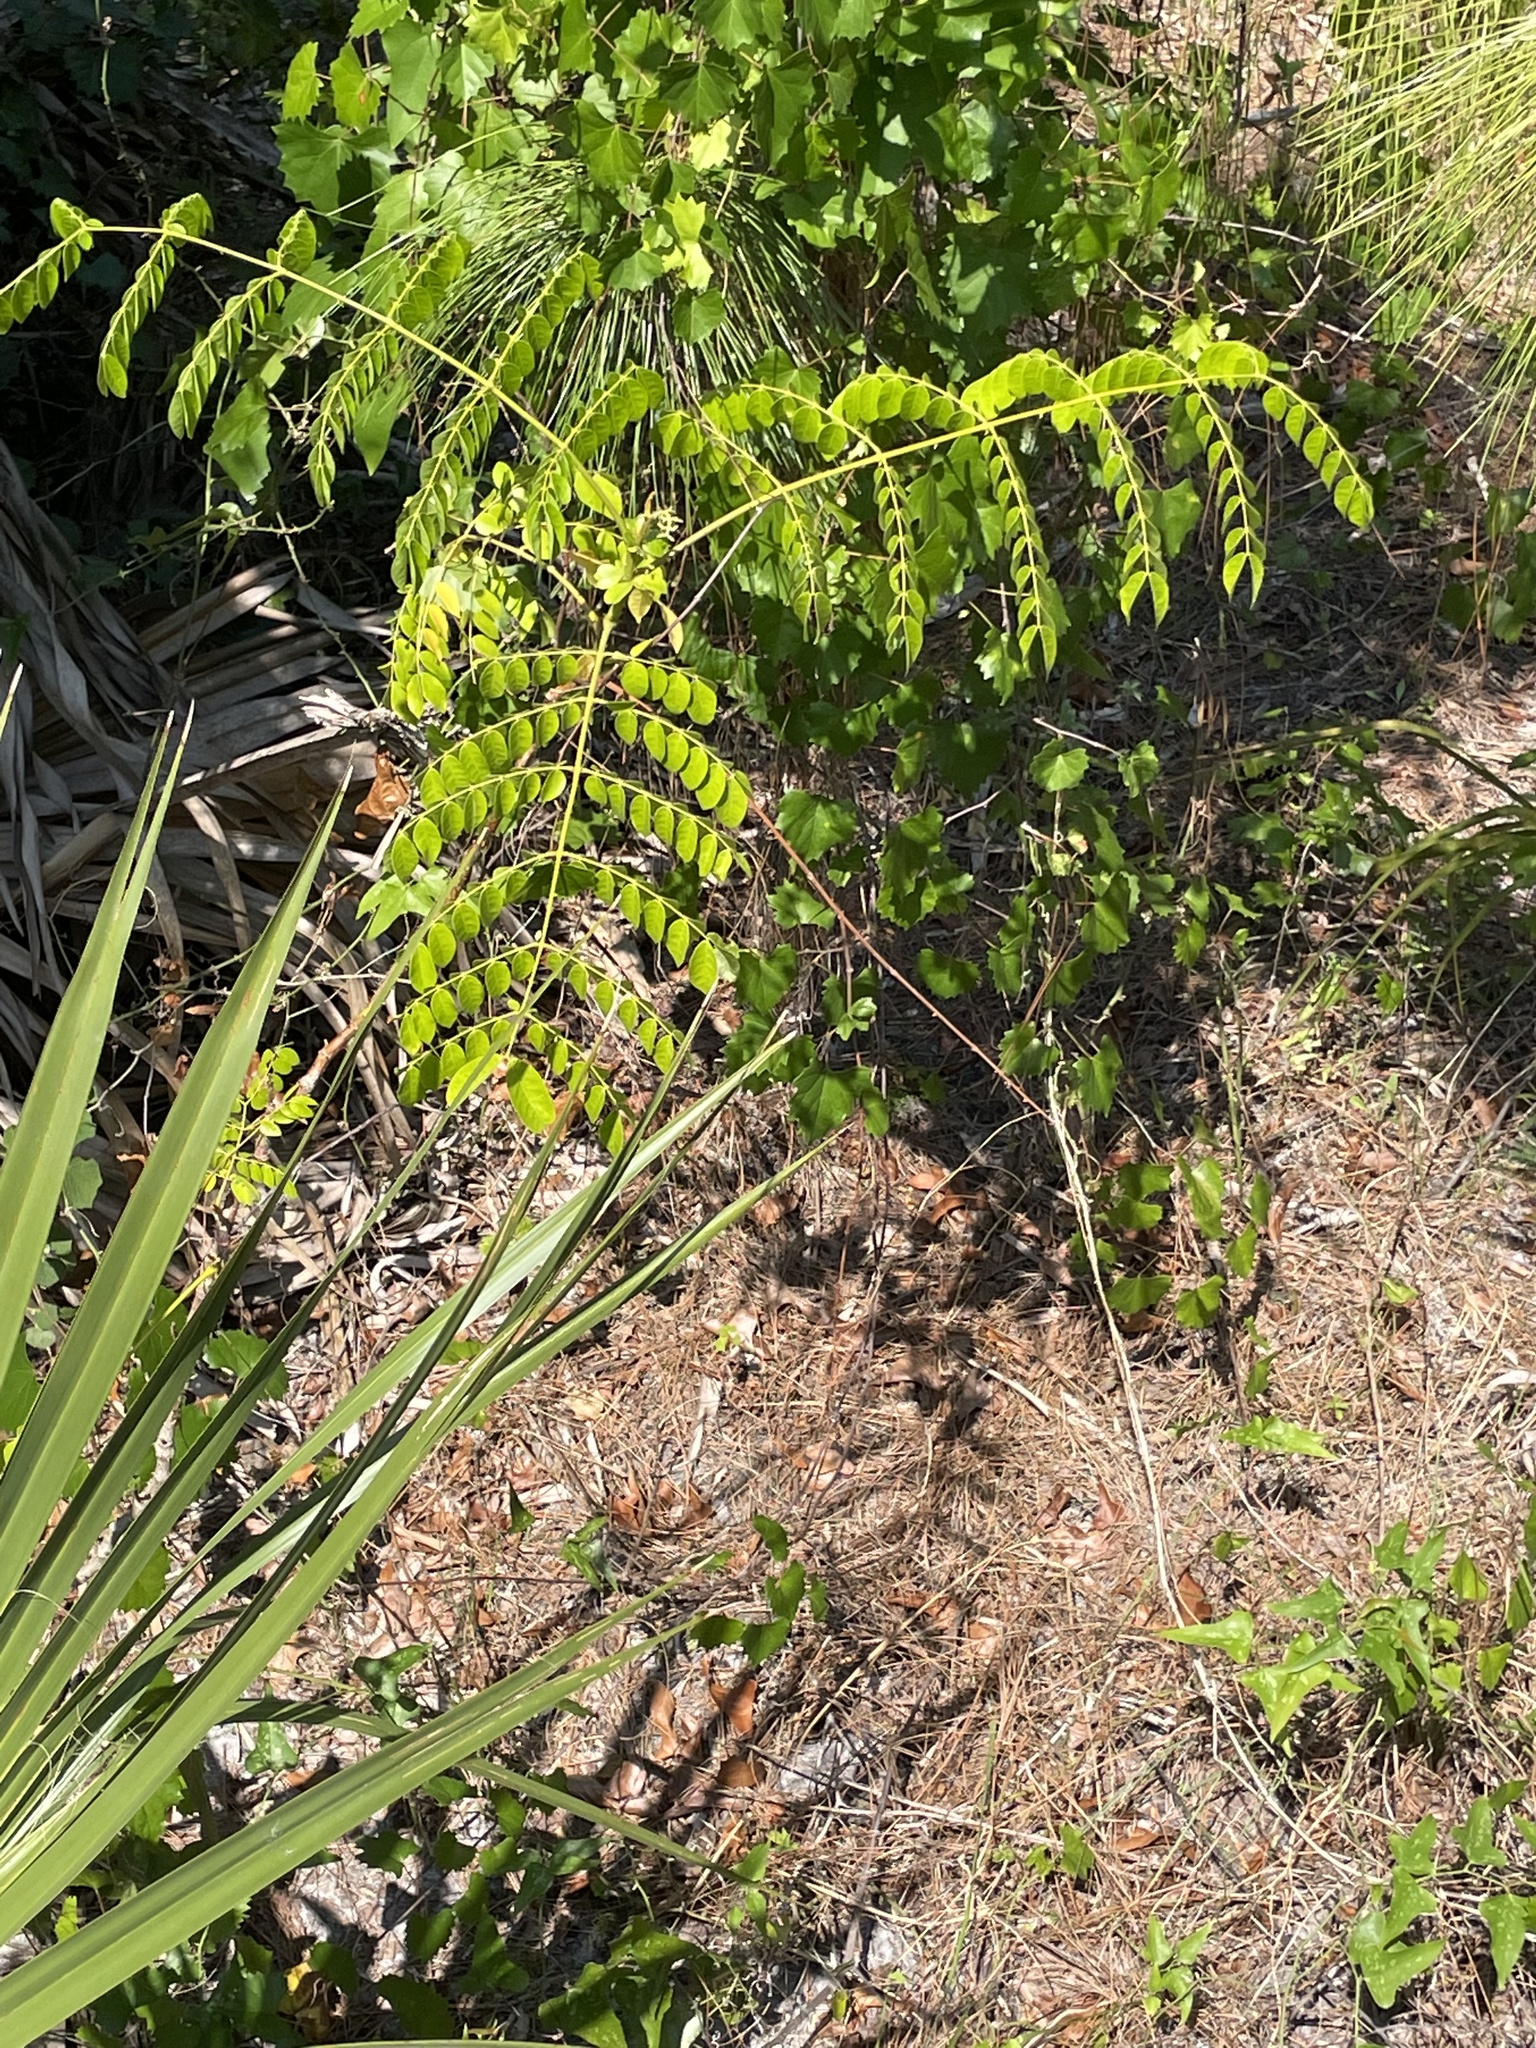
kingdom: Plantae
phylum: Tracheophyta
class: Magnoliopsida
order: Fabales
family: Fabaceae
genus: Guilandina
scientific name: Guilandina bonduc
